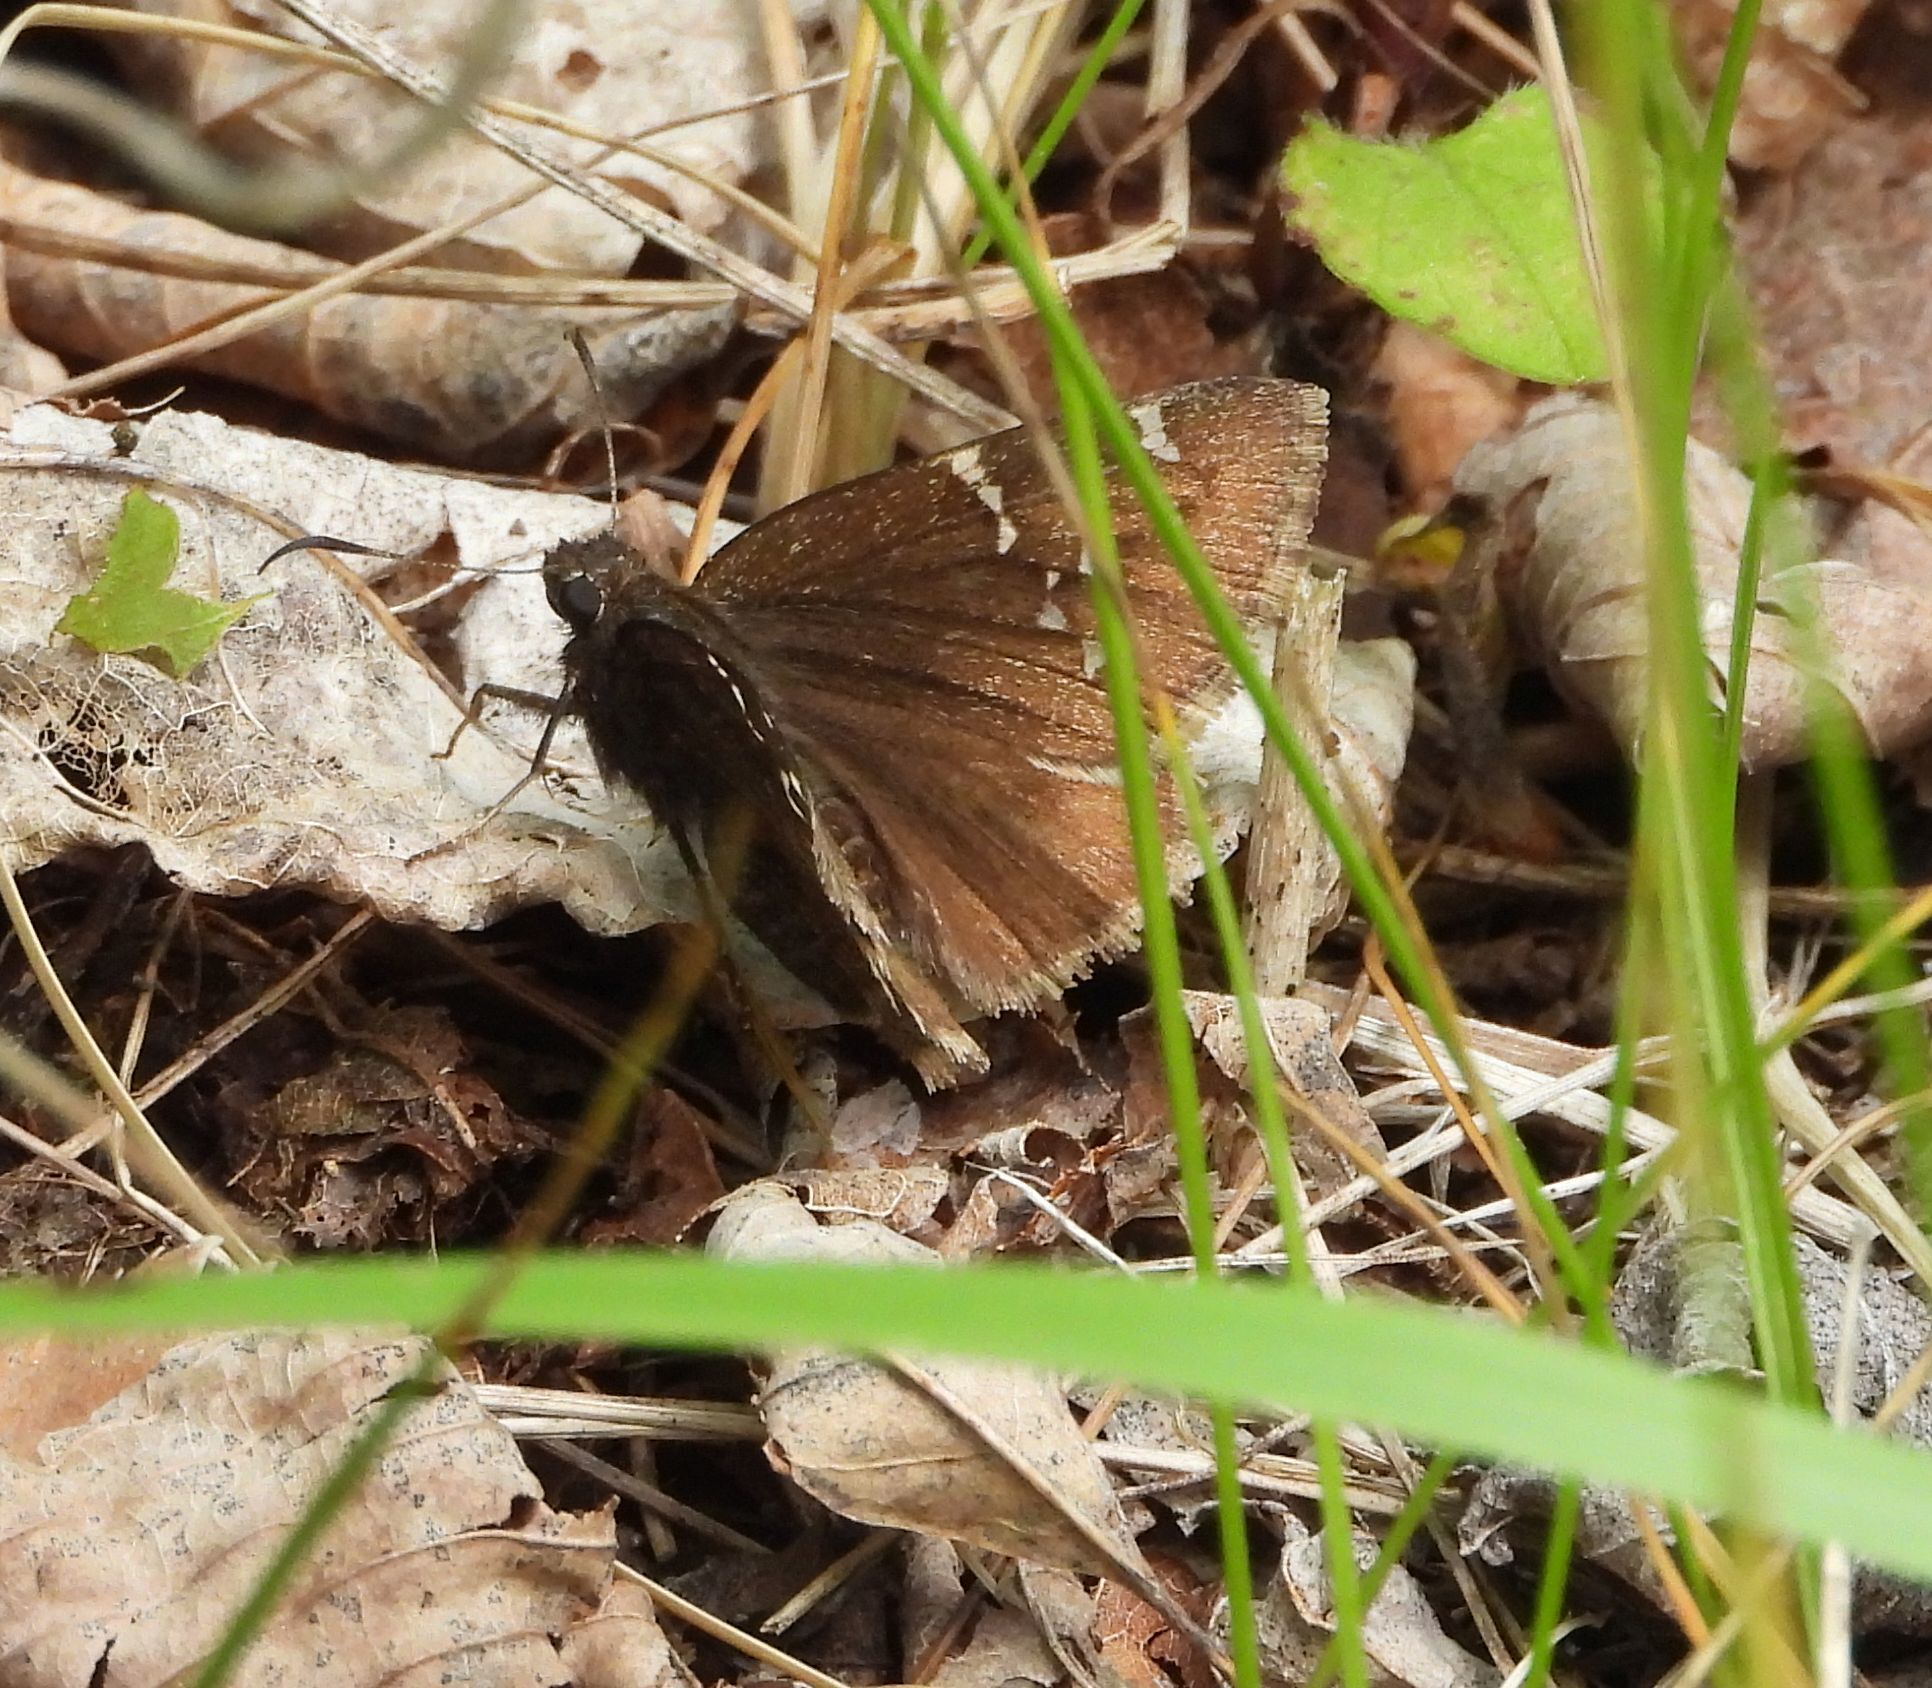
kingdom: Animalia
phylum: Arthropoda
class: Insecta
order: Lepidoptera
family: Hesperiidae
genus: Thorybes
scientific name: Thorybes pylades
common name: Northern cloudywing
